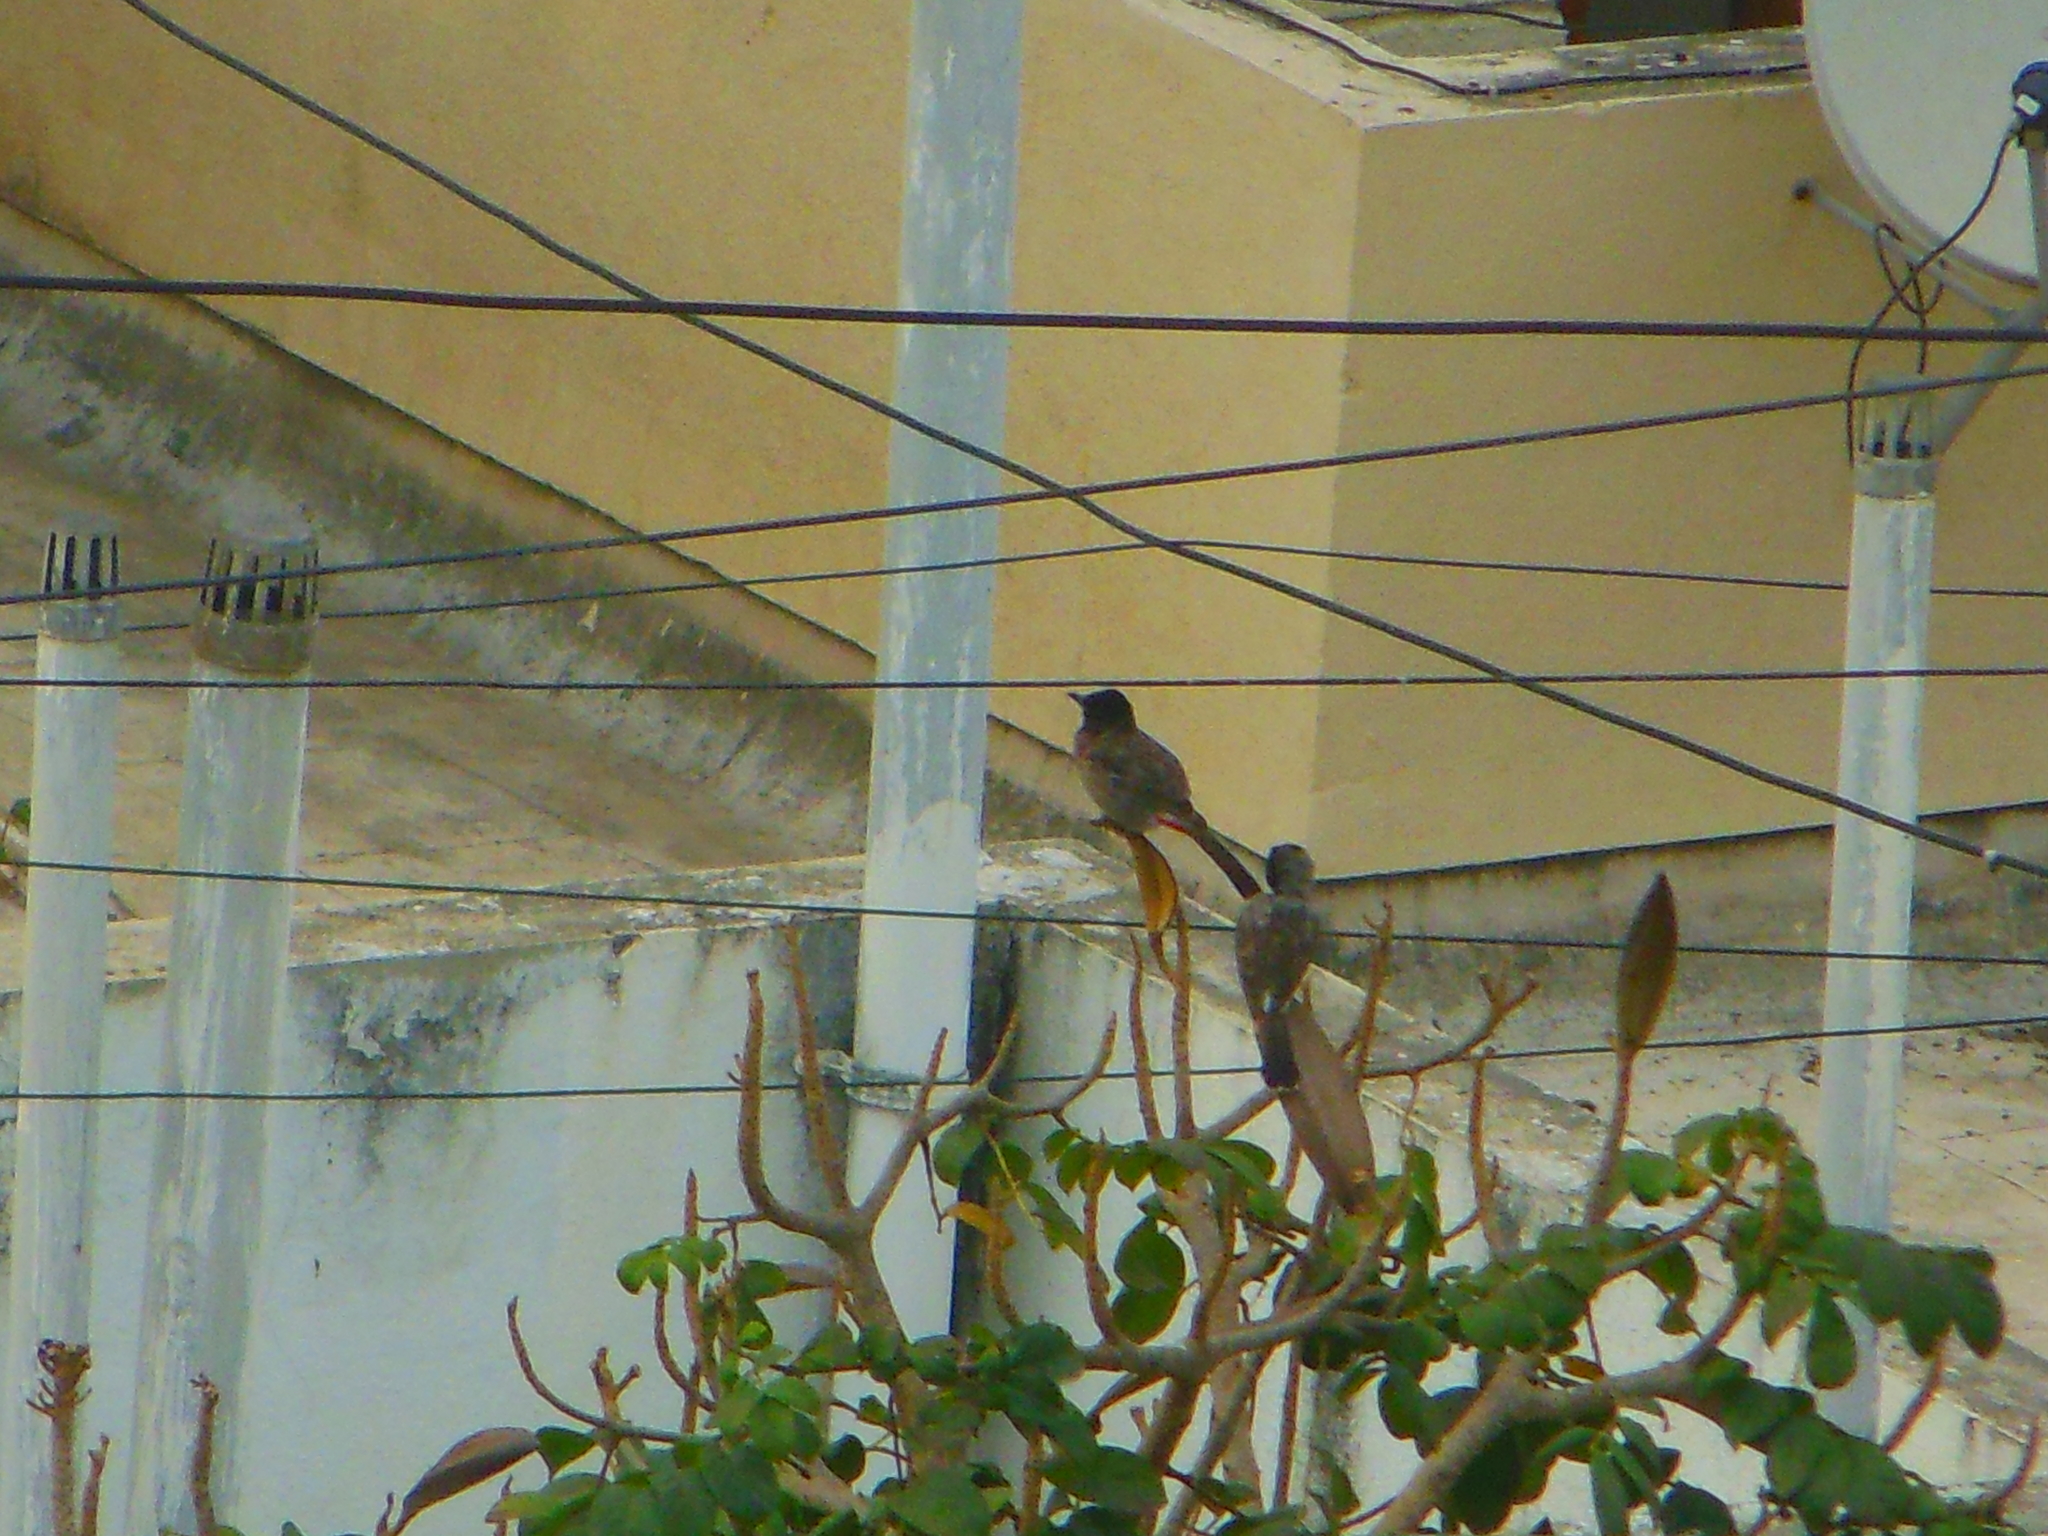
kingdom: Animalia
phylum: Chordata
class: Aves
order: Passeriformes
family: Pycnonotidae
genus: Pycnonotus
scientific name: Pycnonotus cafer
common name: Red-vented bulbul
